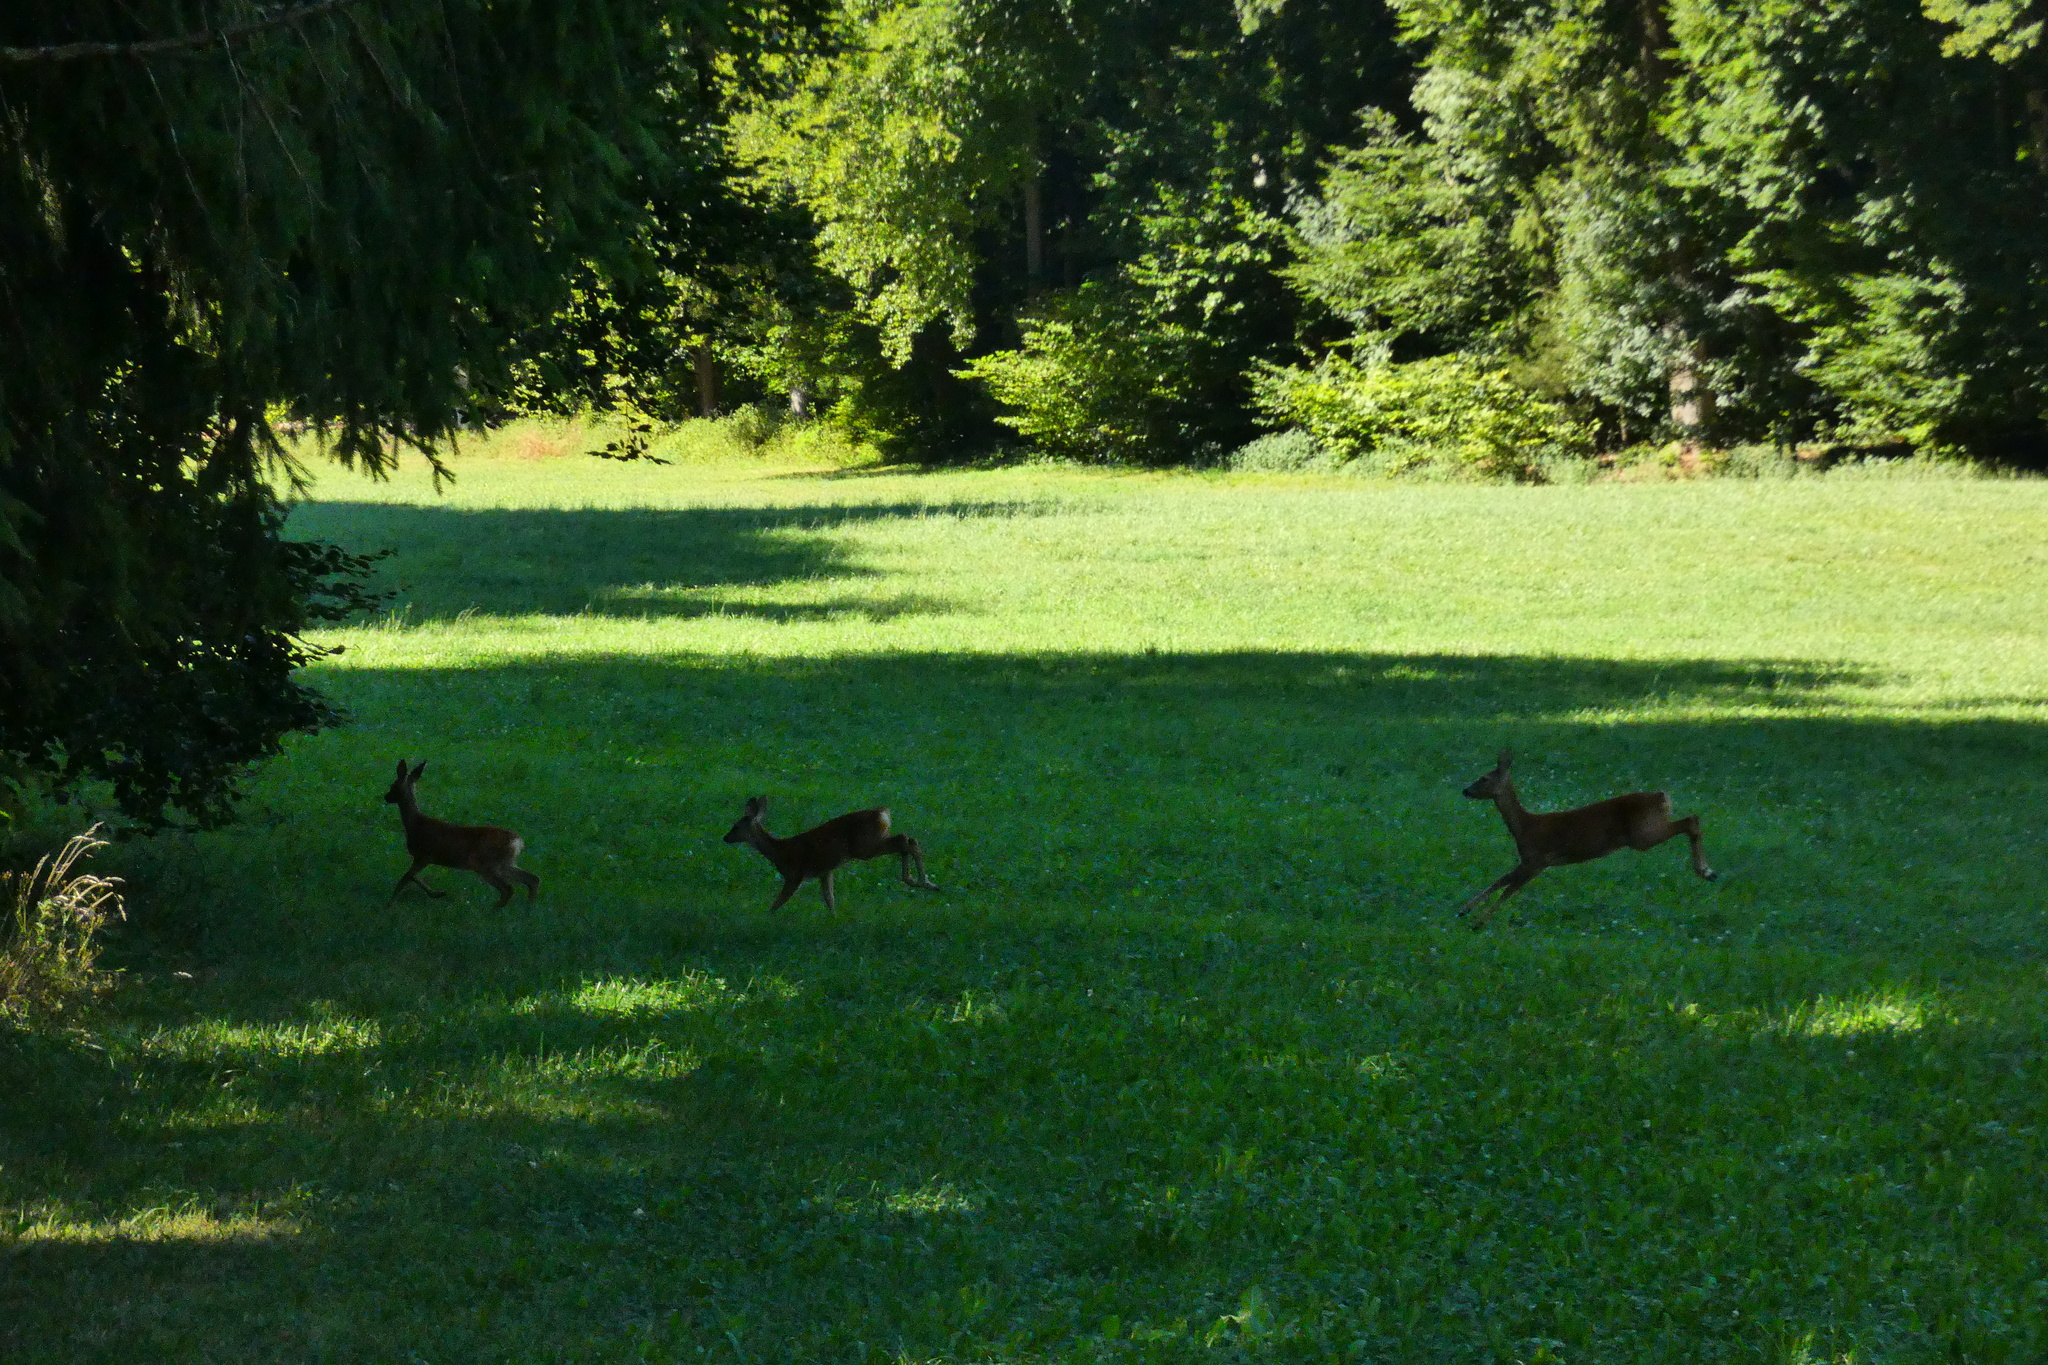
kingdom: Animalia
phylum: Chordata
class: Mammalia
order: Artiodactyla
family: Cervidae
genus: Capreolus
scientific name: Capreolus capreolus
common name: Western roe deer
